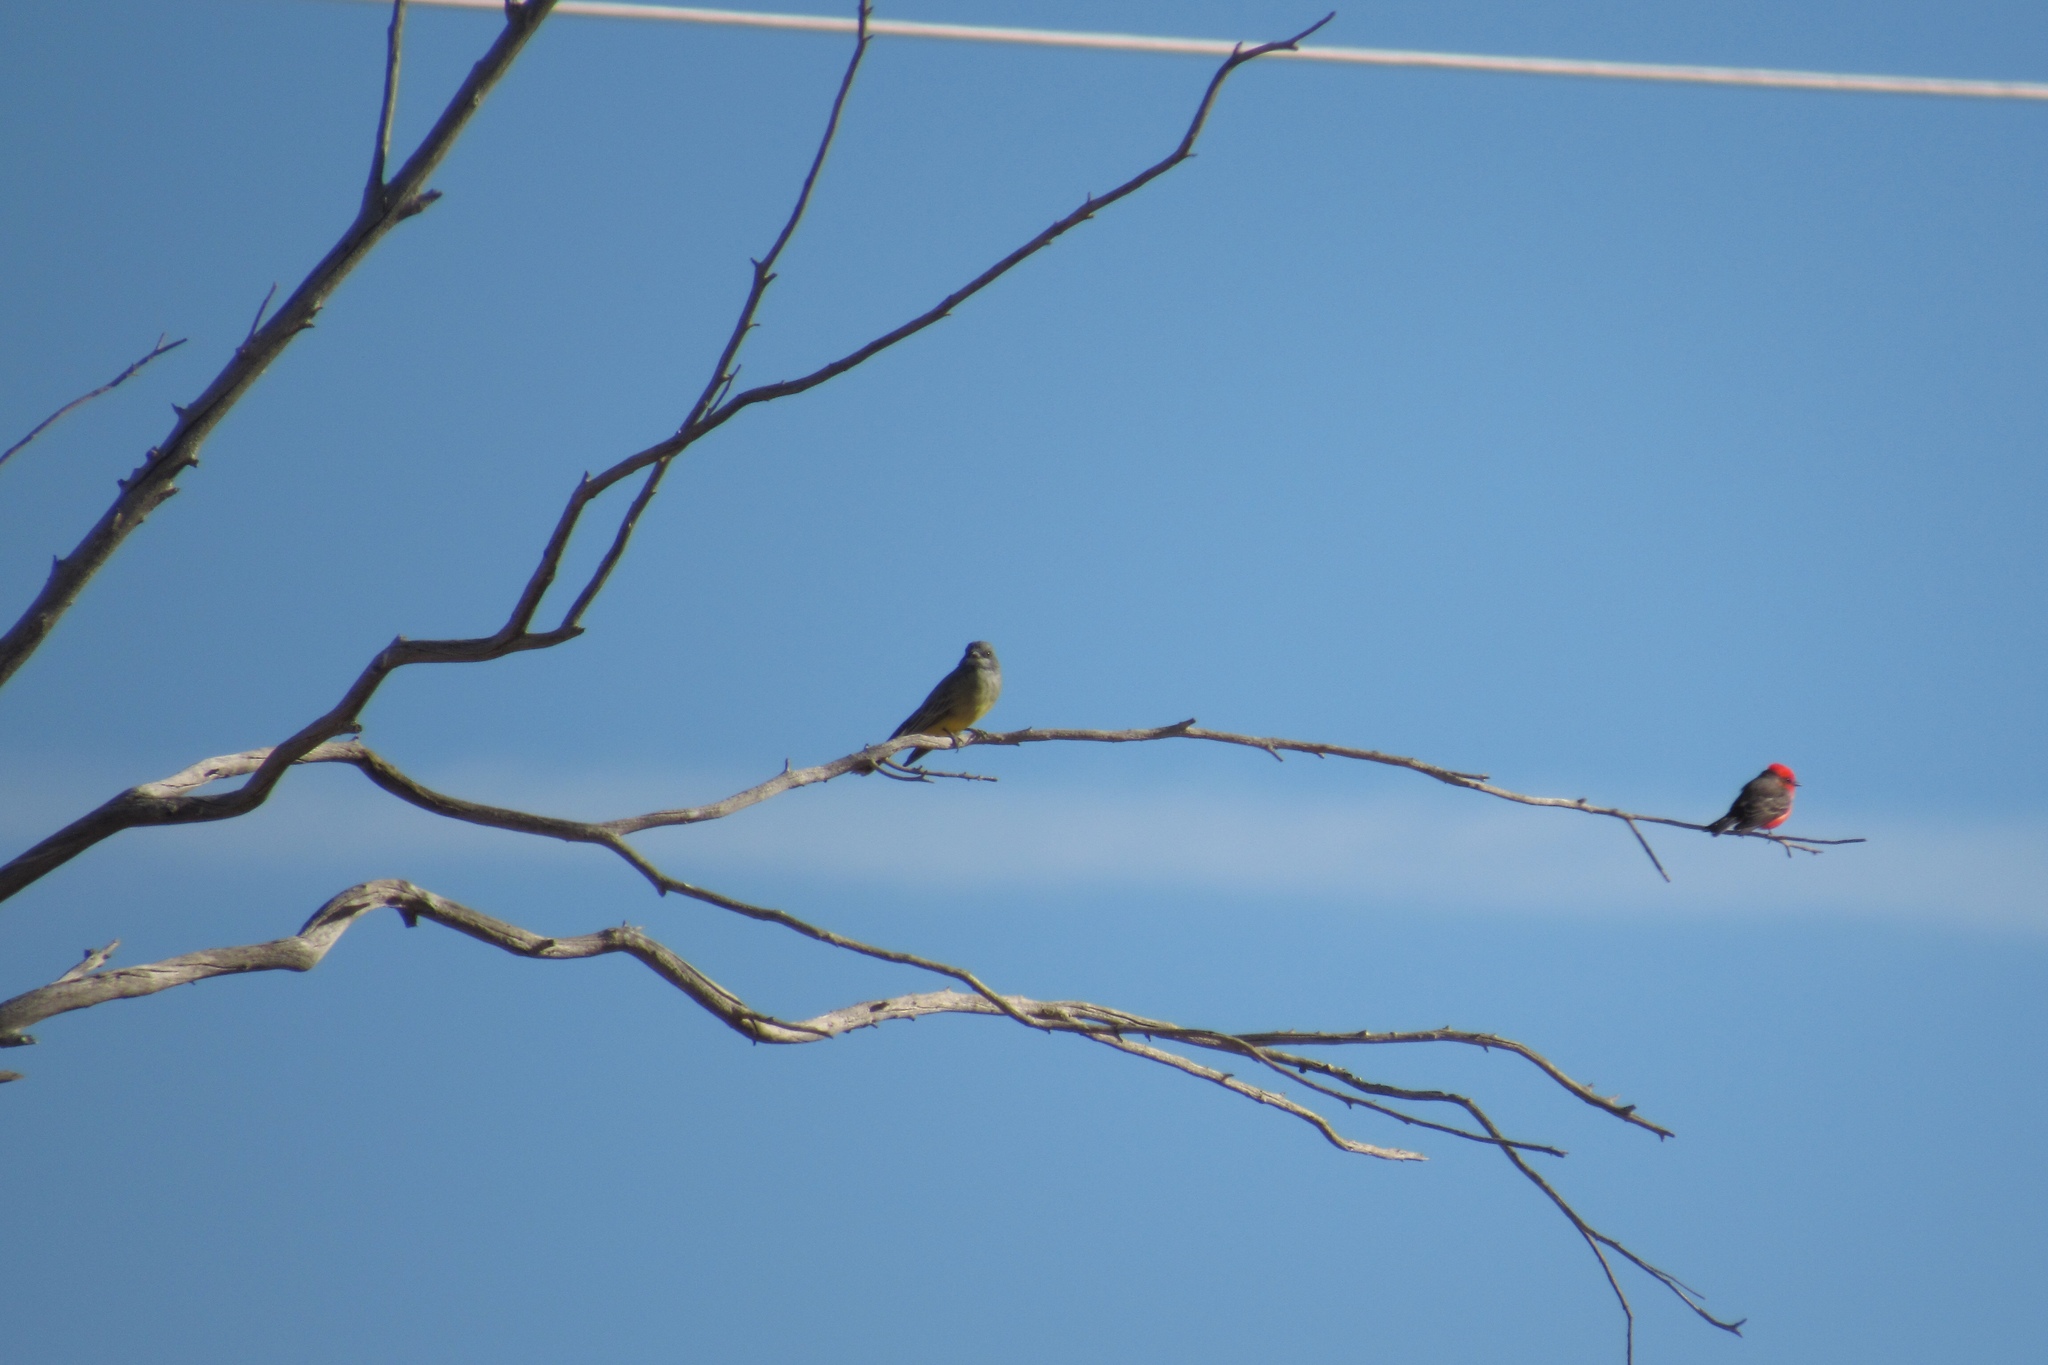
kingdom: Animalia
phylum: Chordata
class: Aves
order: Passeriformes
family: Tyrannidae
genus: Pyrocephalus
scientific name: Pyrocephalus rubinus
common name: Vermilion flycatcher
